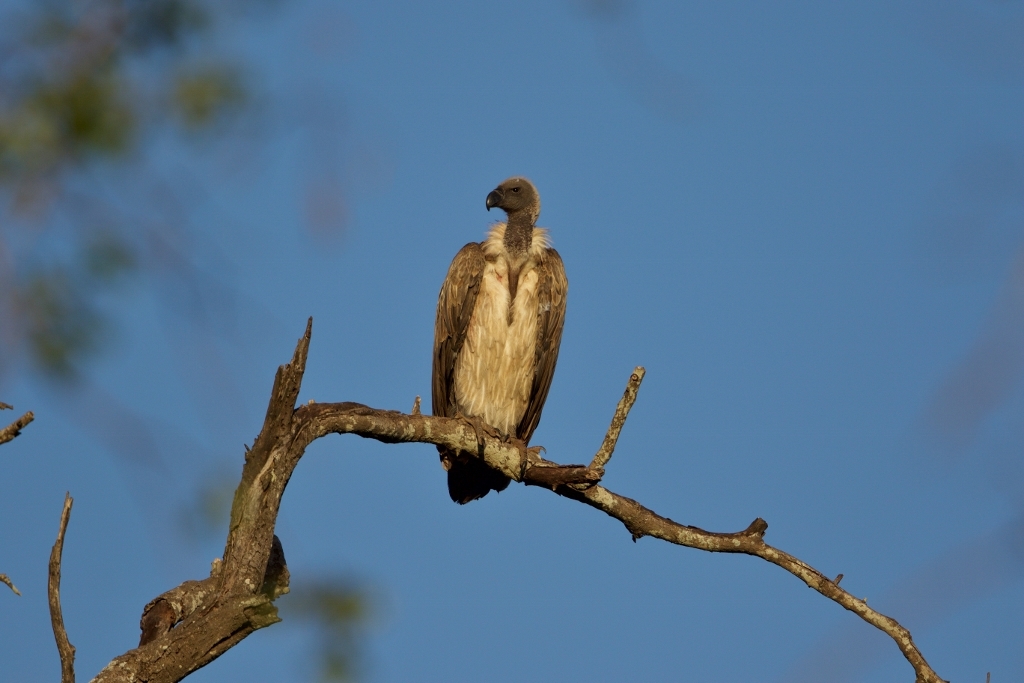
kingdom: Animalia
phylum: Chordata
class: Aves
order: Accipitriformes
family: Accipitridae
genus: Gyps
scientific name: Gyps africanus
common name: White-backed vulture
